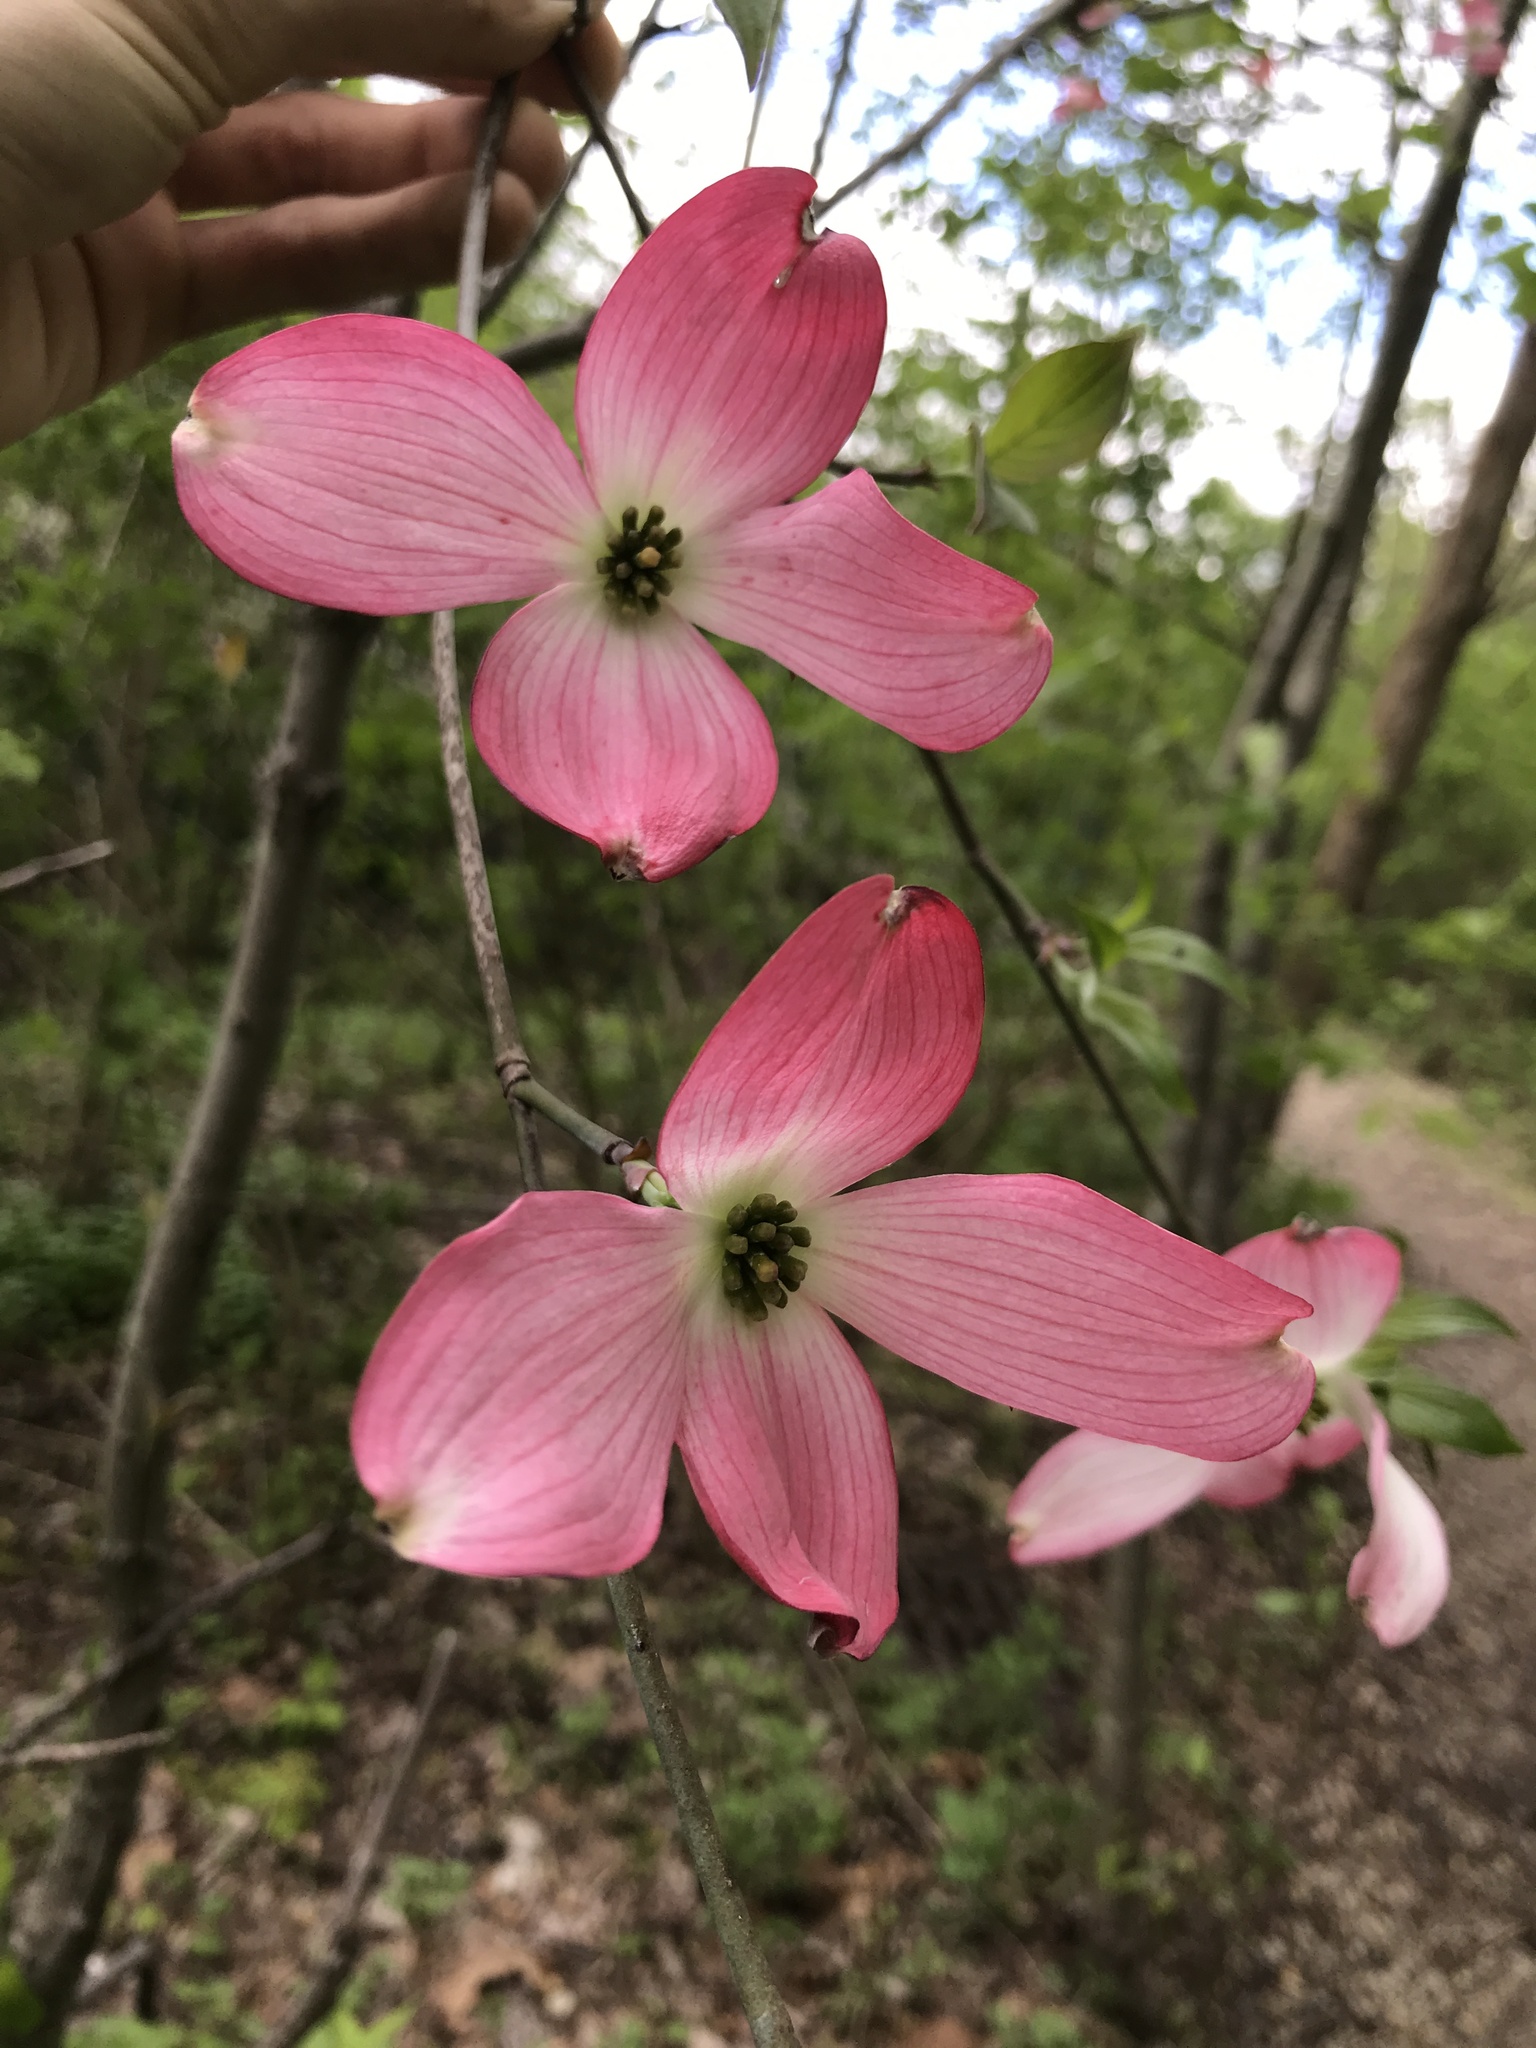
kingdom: Plantae
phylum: Tracheophyta
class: Magnoliopsida
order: Cornales
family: Cornaceae
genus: Cornus
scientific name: Cornus florida
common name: Flowering dogwood
